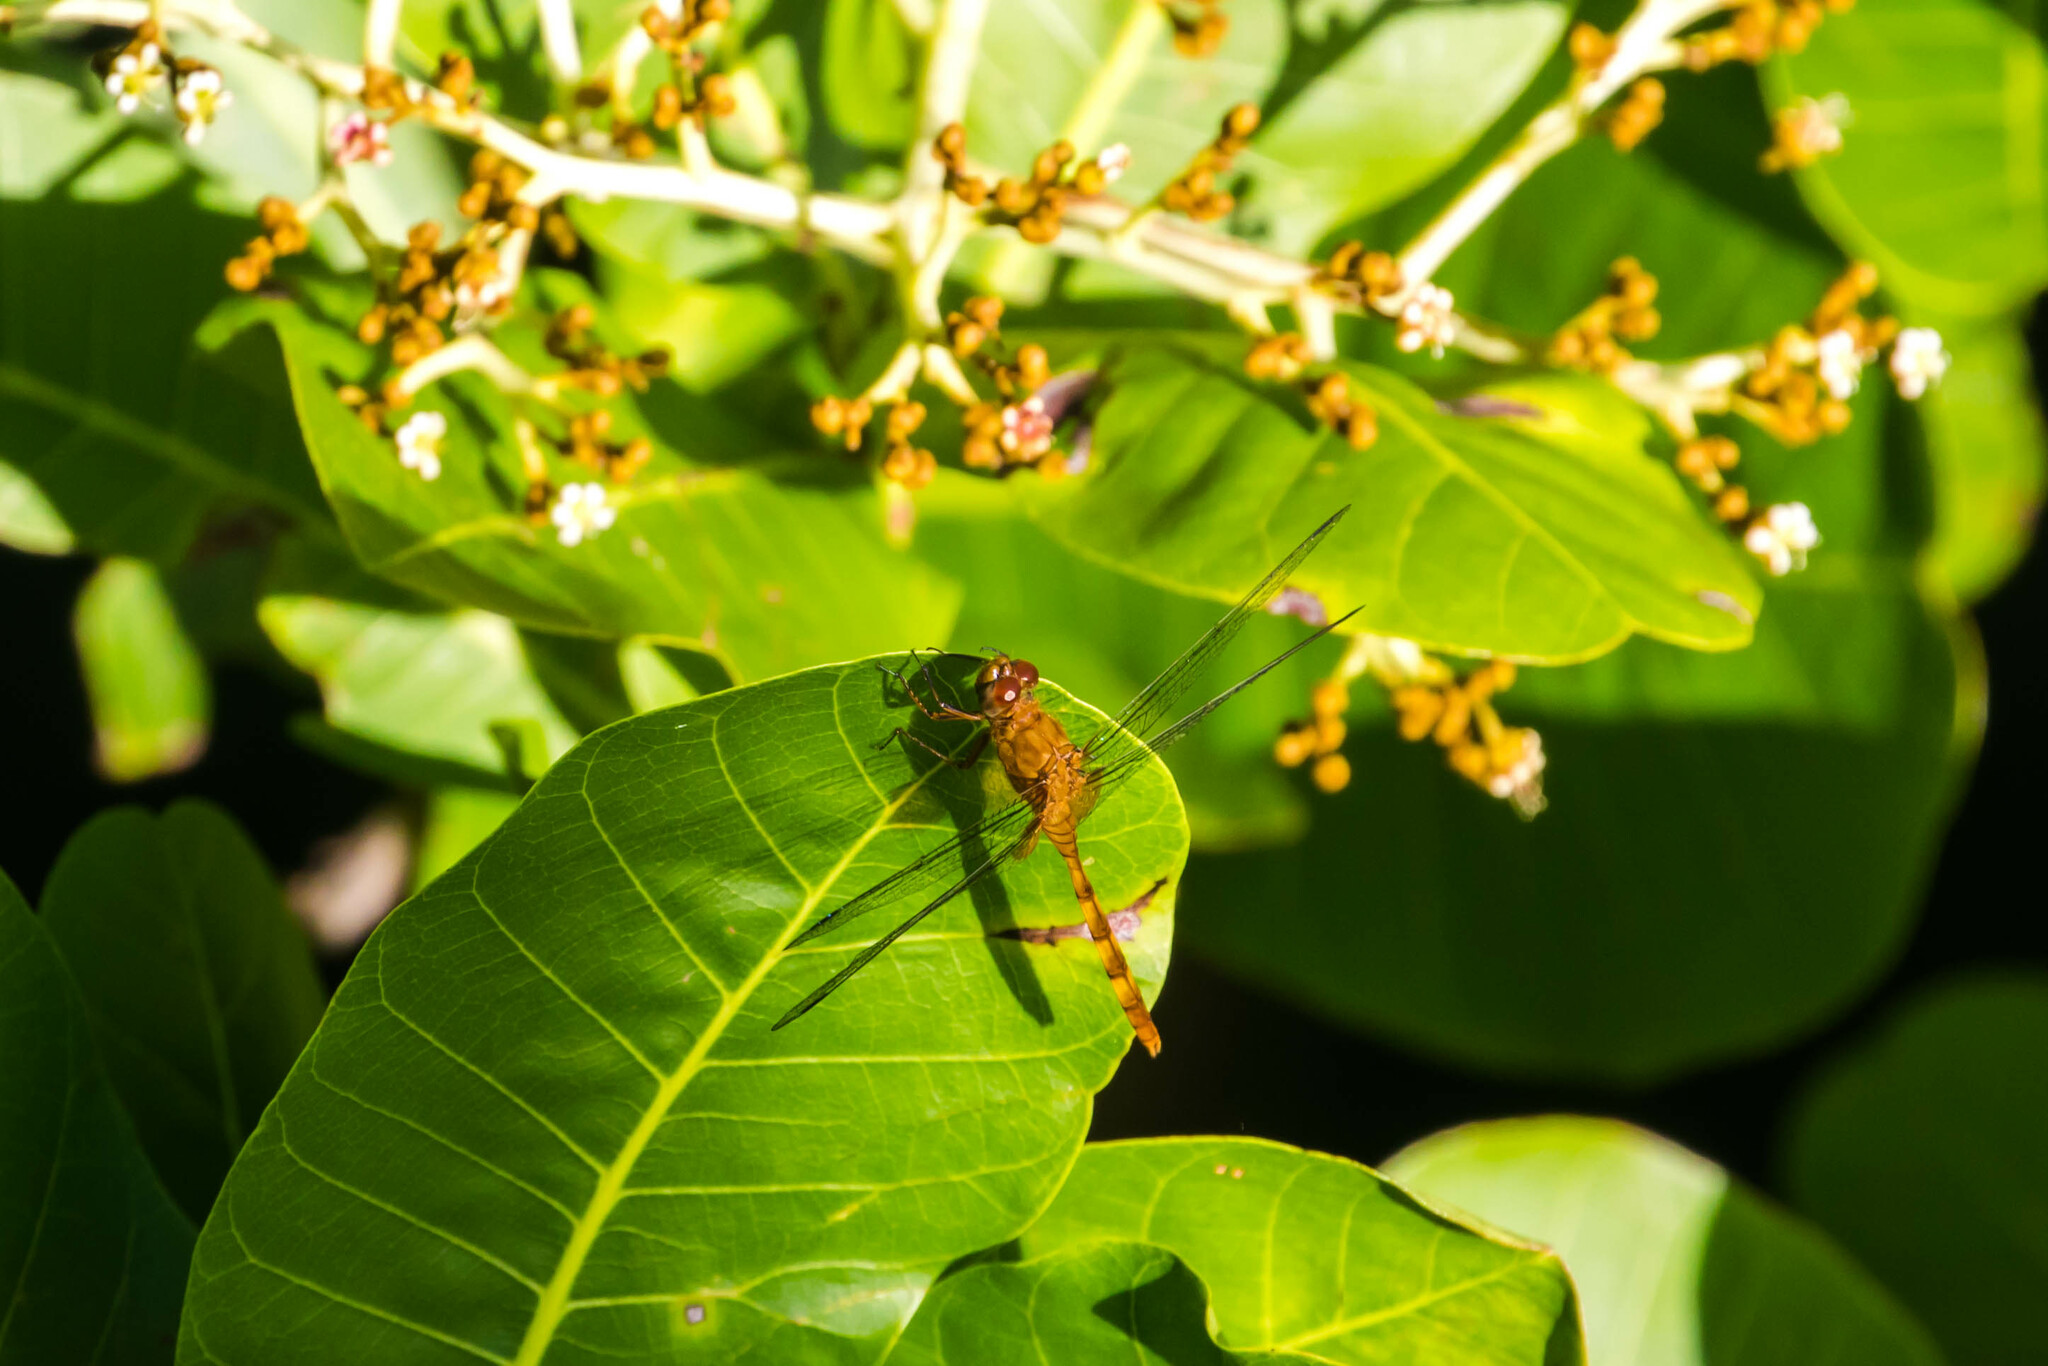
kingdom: Animalia
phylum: Arthropoda
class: Insecta
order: Odonata
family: Libellulidae
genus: Erythemis
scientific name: Erythemis carmelita
